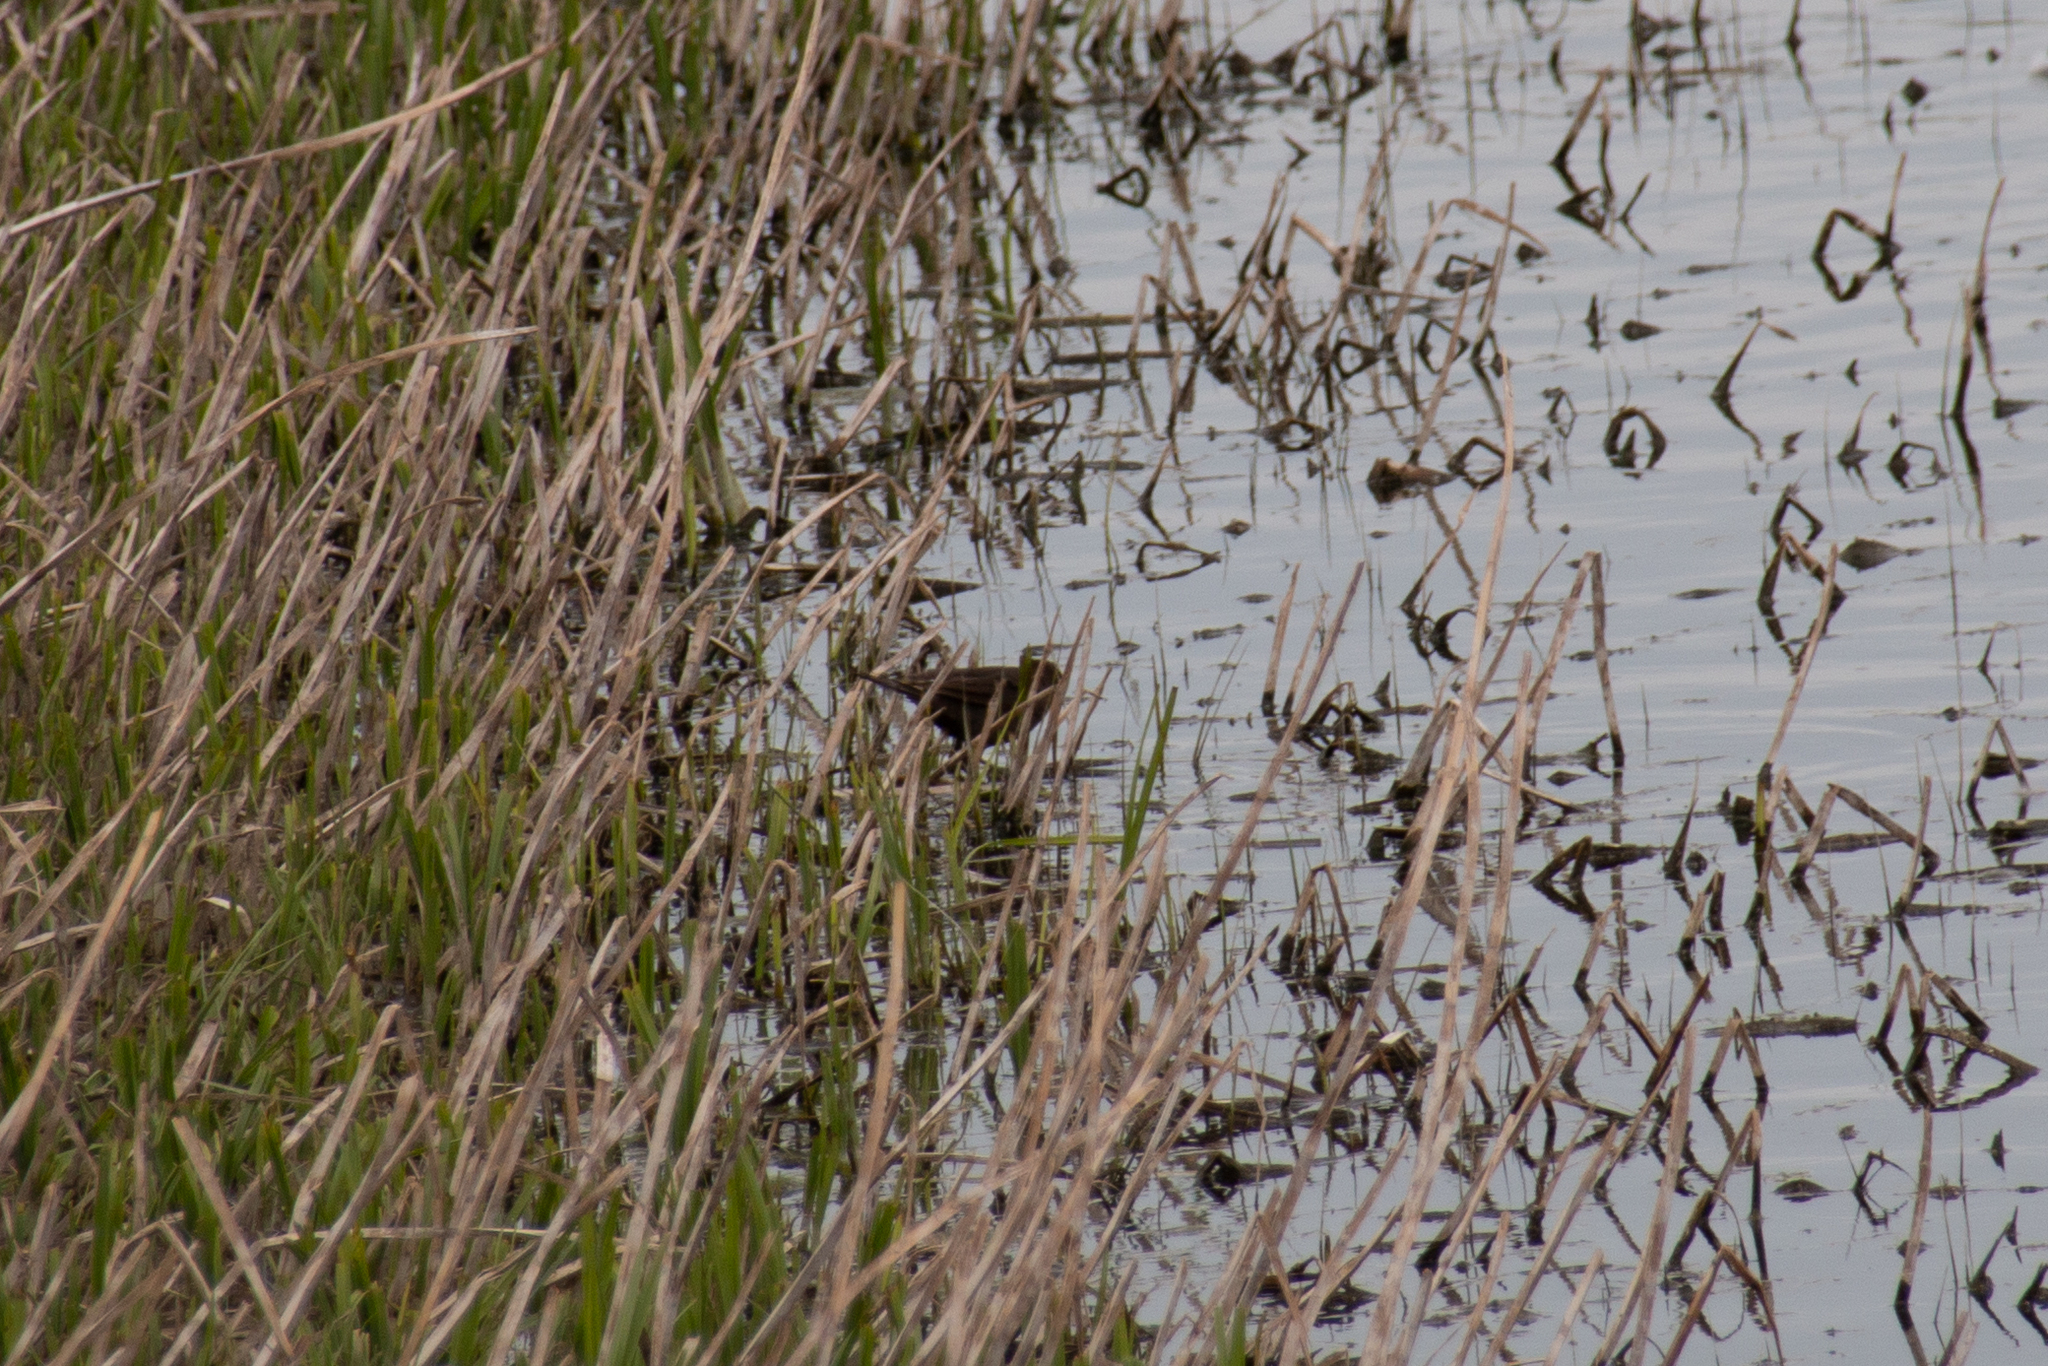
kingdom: Animalia
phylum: Chordata
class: Aves
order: Passeriformes
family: Icteridae
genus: Xanthocephalus
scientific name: Xanthocephalus xanthocephalus
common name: Yellow-headed blackbird
